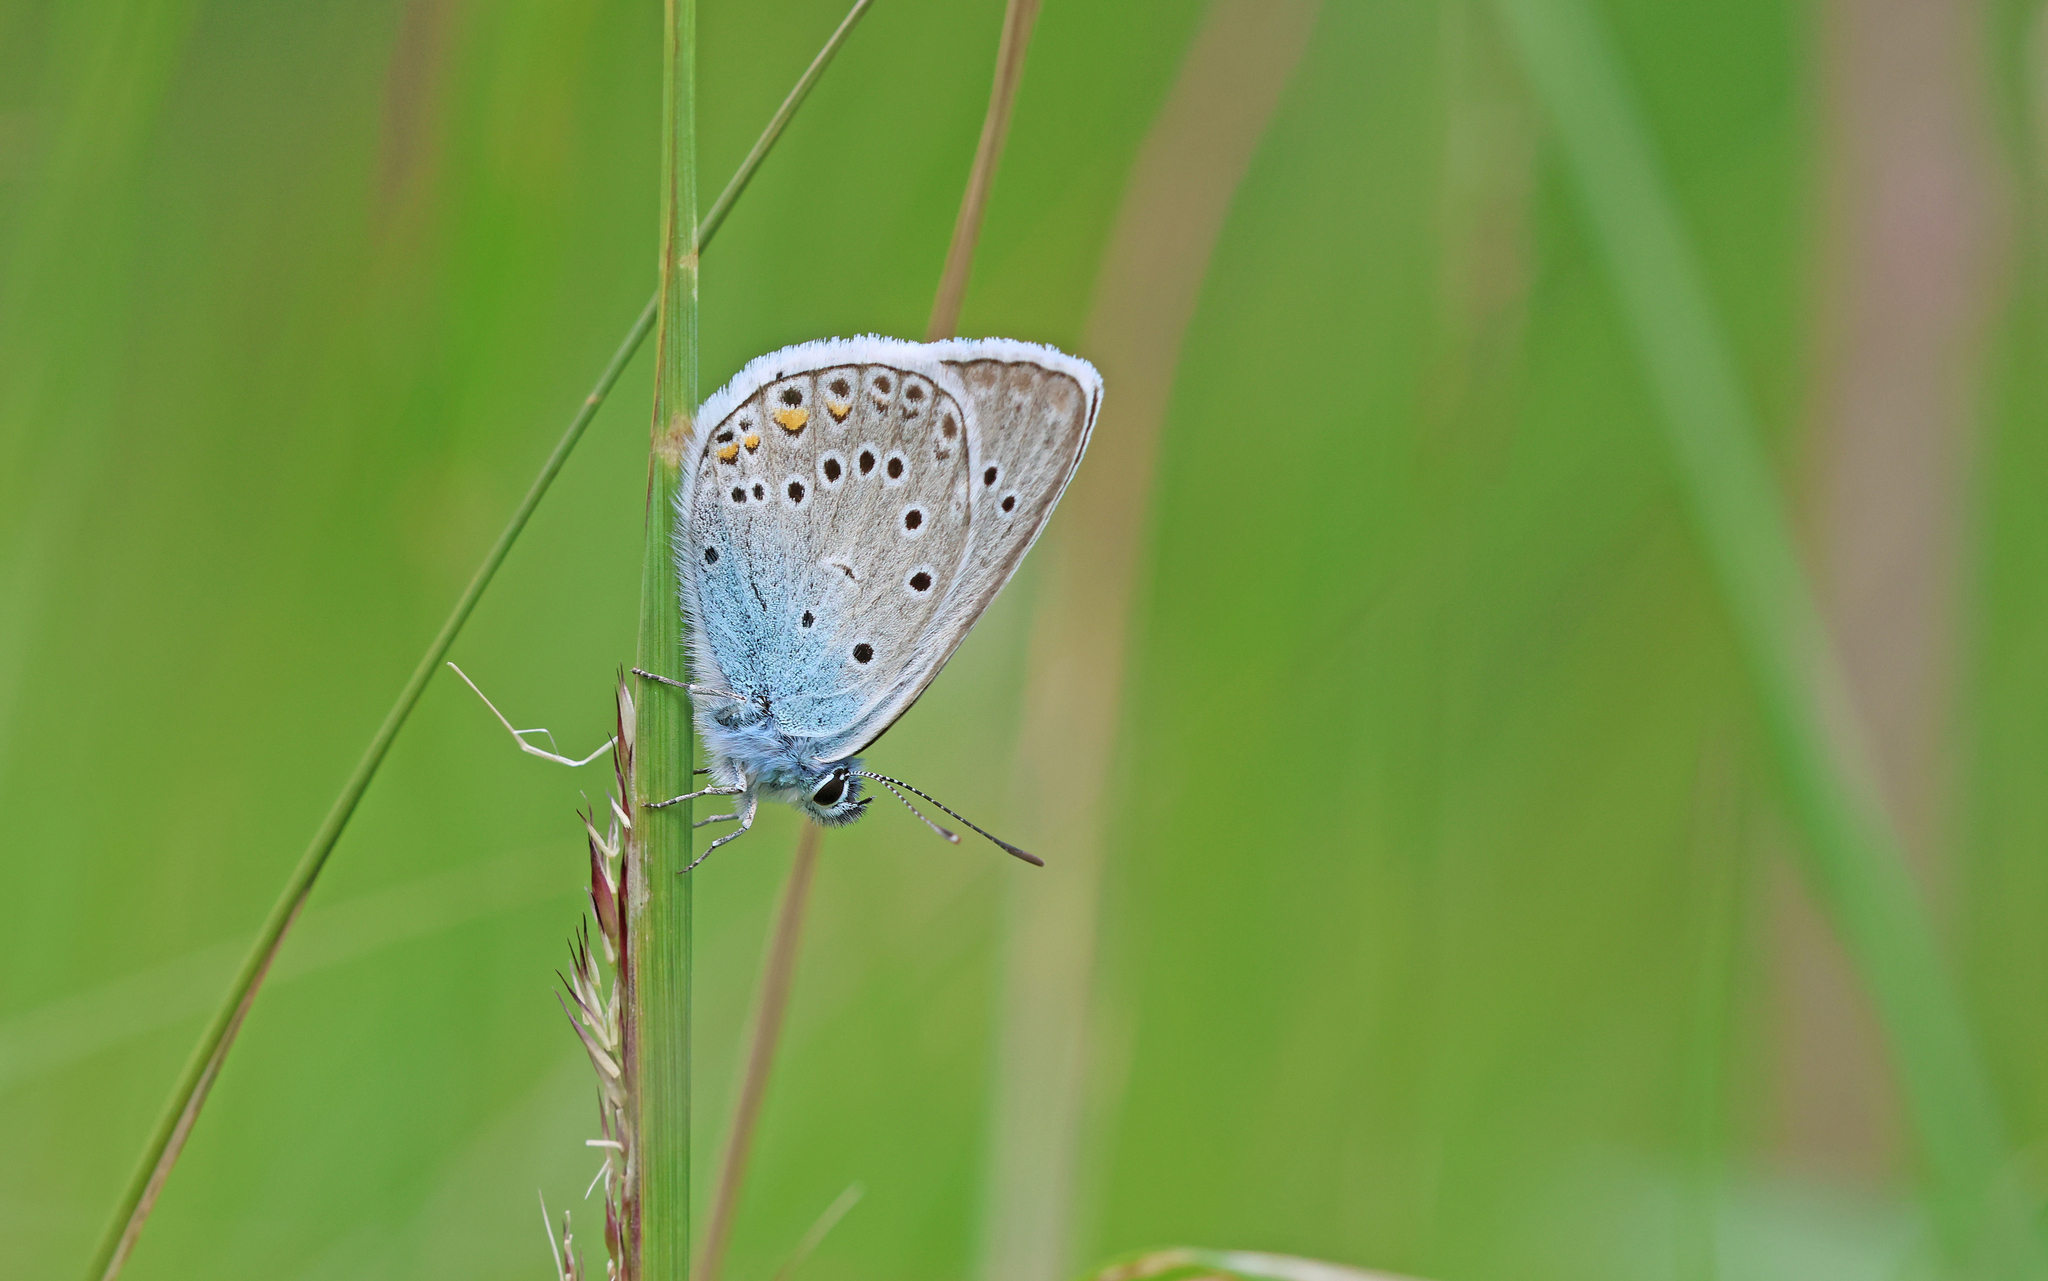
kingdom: Animalia
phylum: Arthropoda
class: Insecta
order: Lepidoptera
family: Lycaenidae
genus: Plebejus
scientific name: Plebejus amanda
